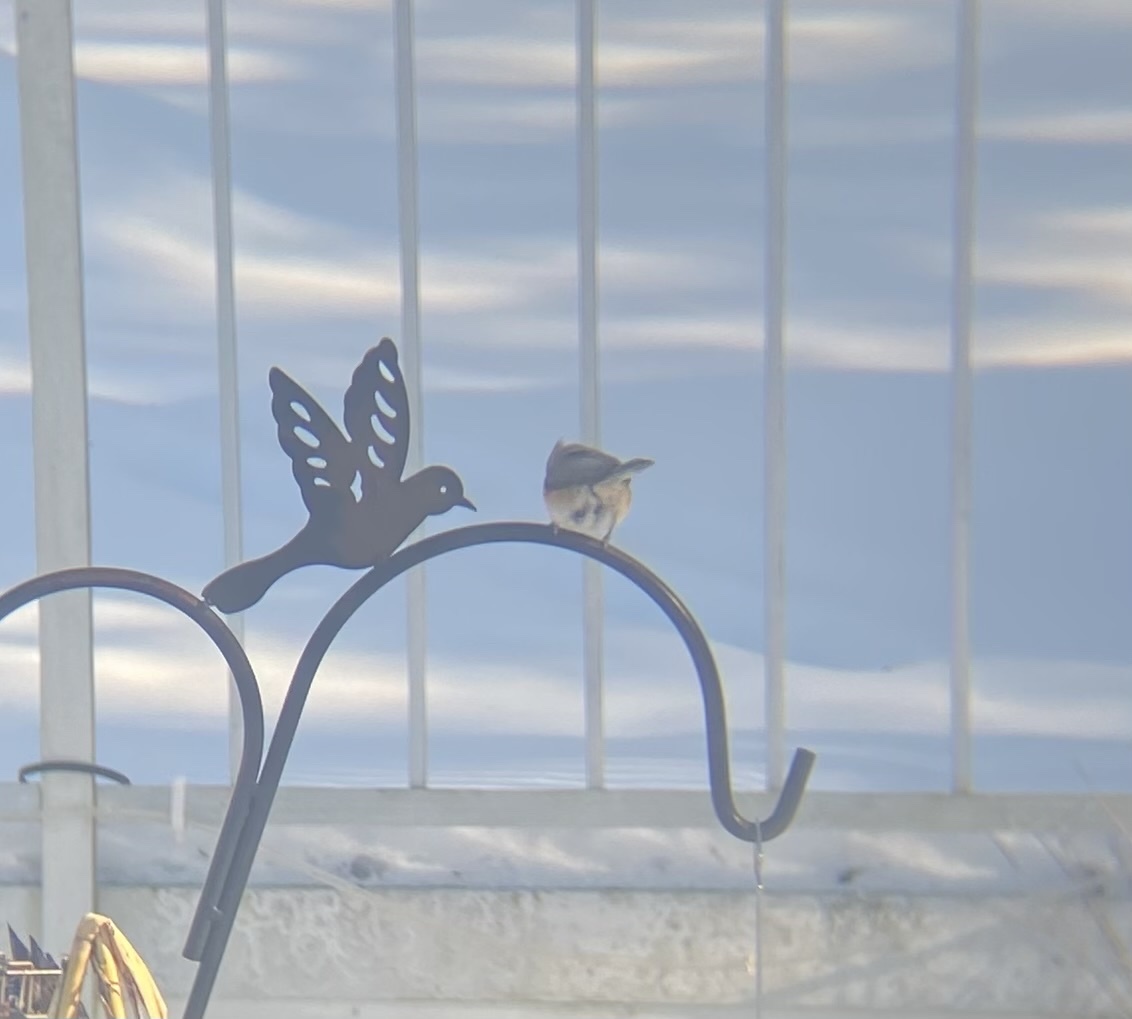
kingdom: Animalia
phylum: Chordata
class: Aves
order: Passeriformes
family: Paridae
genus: Baeolophus
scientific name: Baeolophus bicolor
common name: Tufted titmouse
